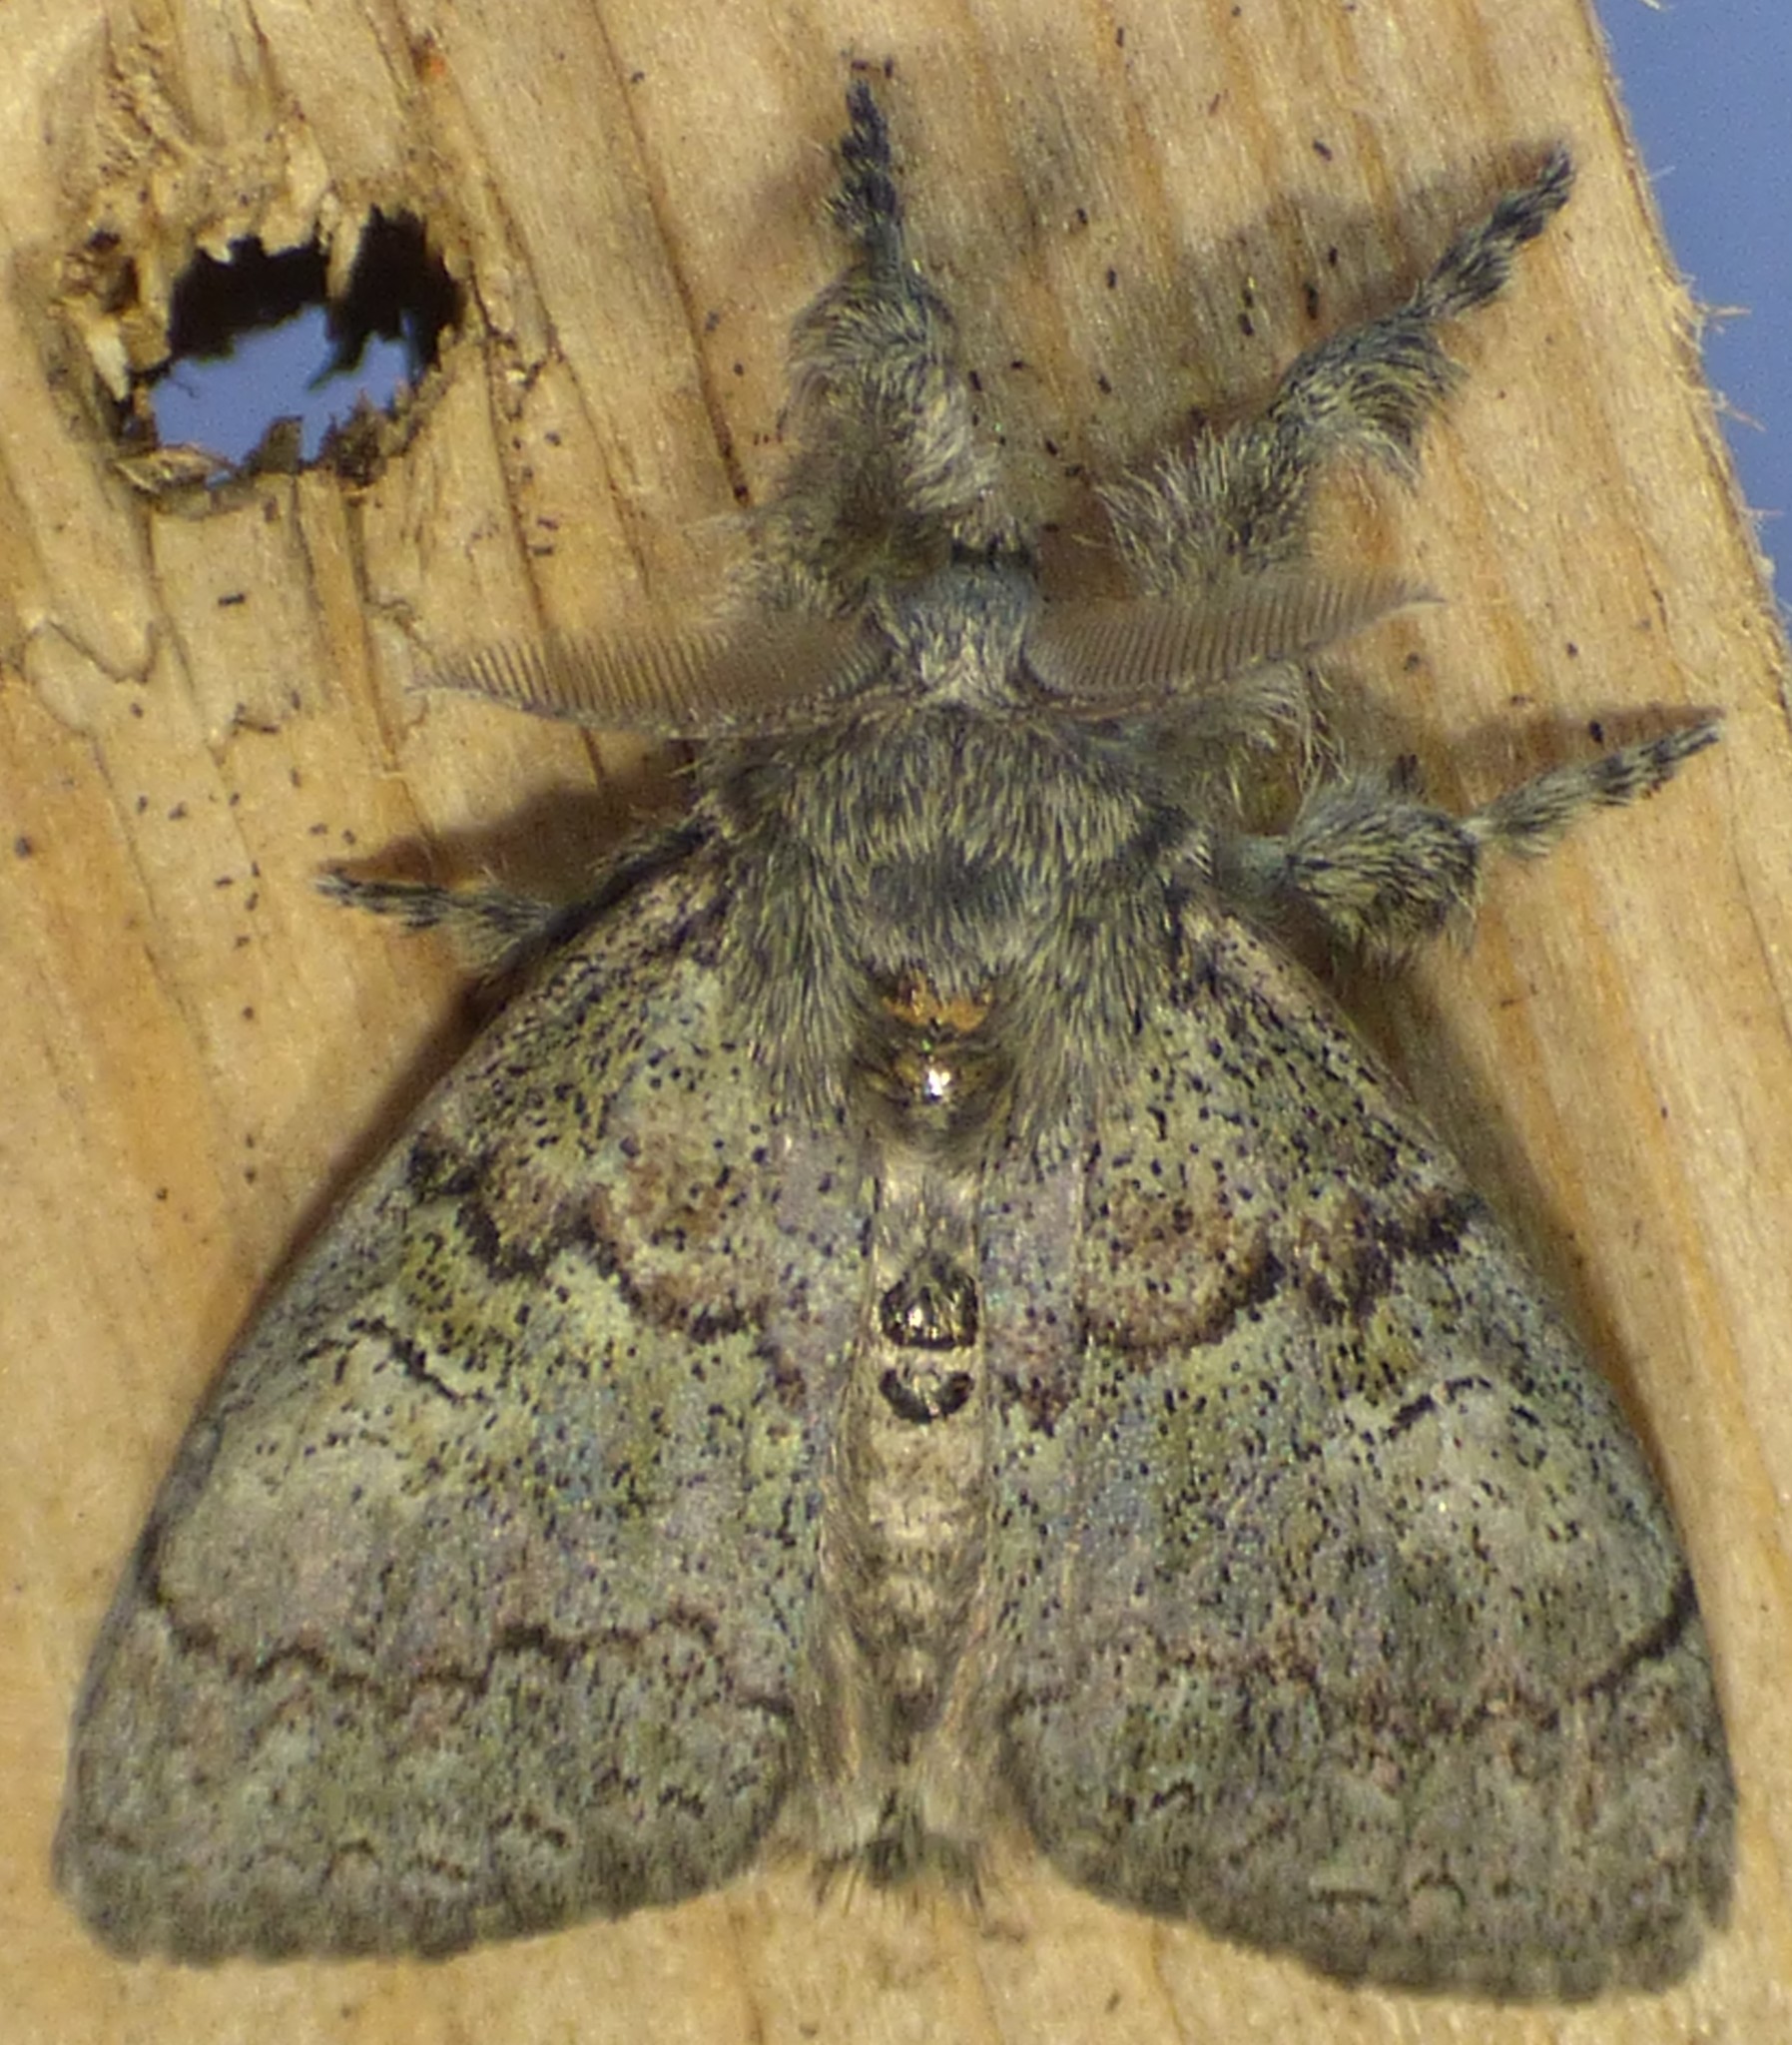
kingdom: Animalia
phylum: Arthropoda
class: Insecta
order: Lepidoptera
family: Erebidae
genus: Dasychira
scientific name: Dasychira vagans
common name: Variable tussock moth
